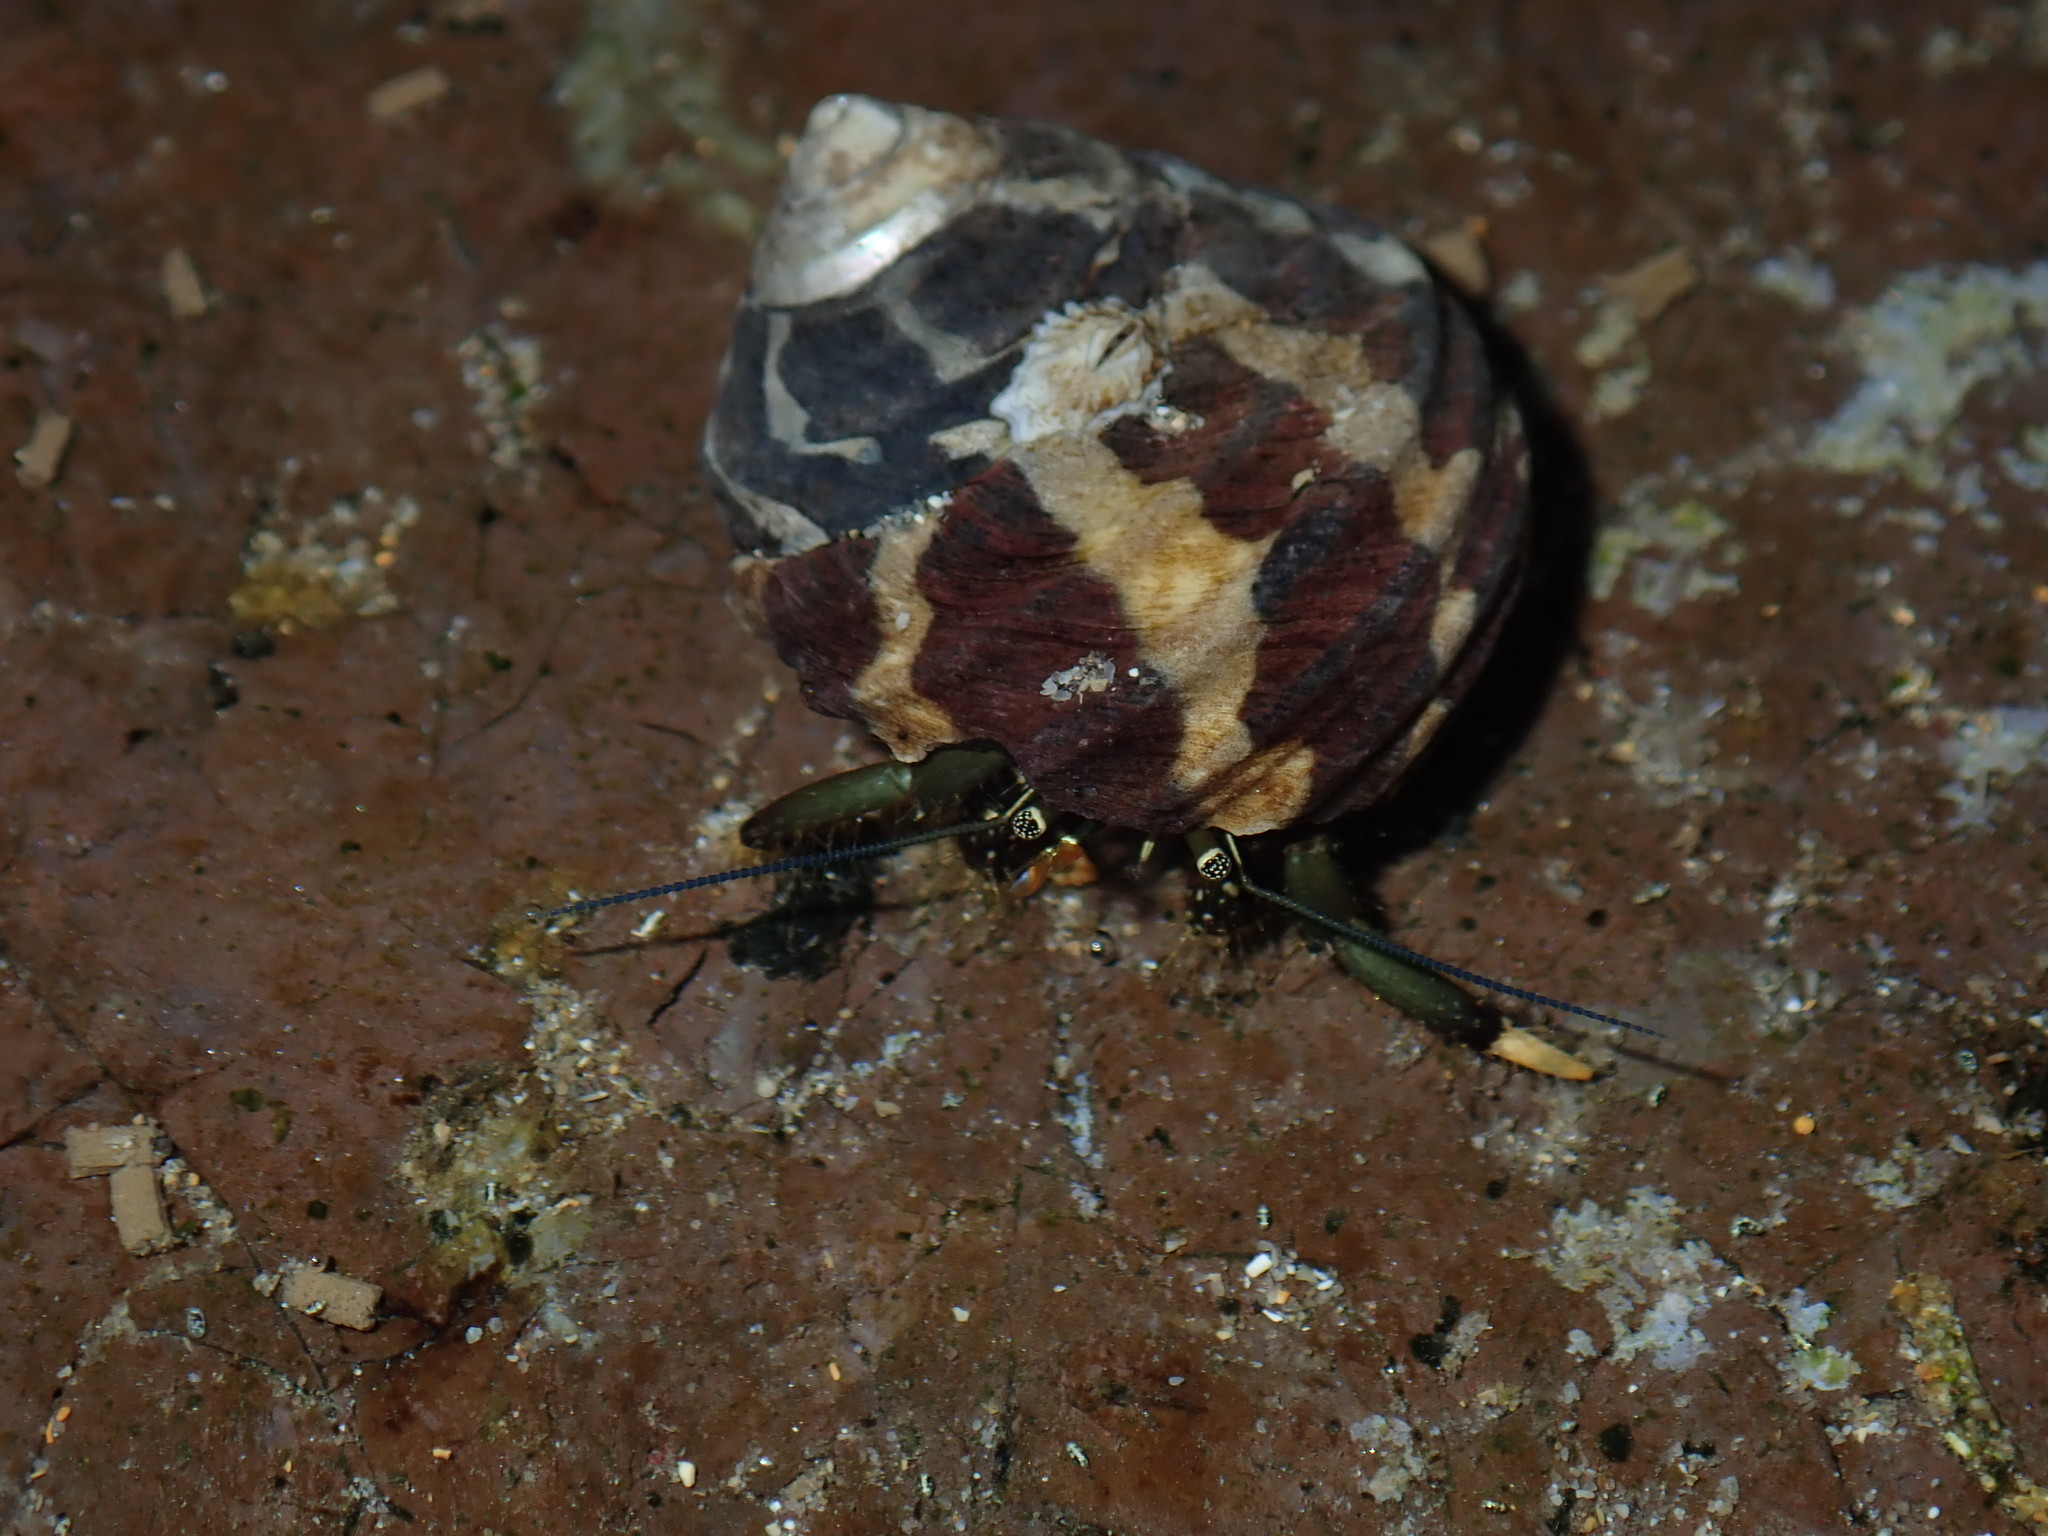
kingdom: Animalia
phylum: Arthropoda
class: Malacostraca
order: Decapoda
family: Diogenidae
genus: Clibanarius
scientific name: Clibanarius virescens
